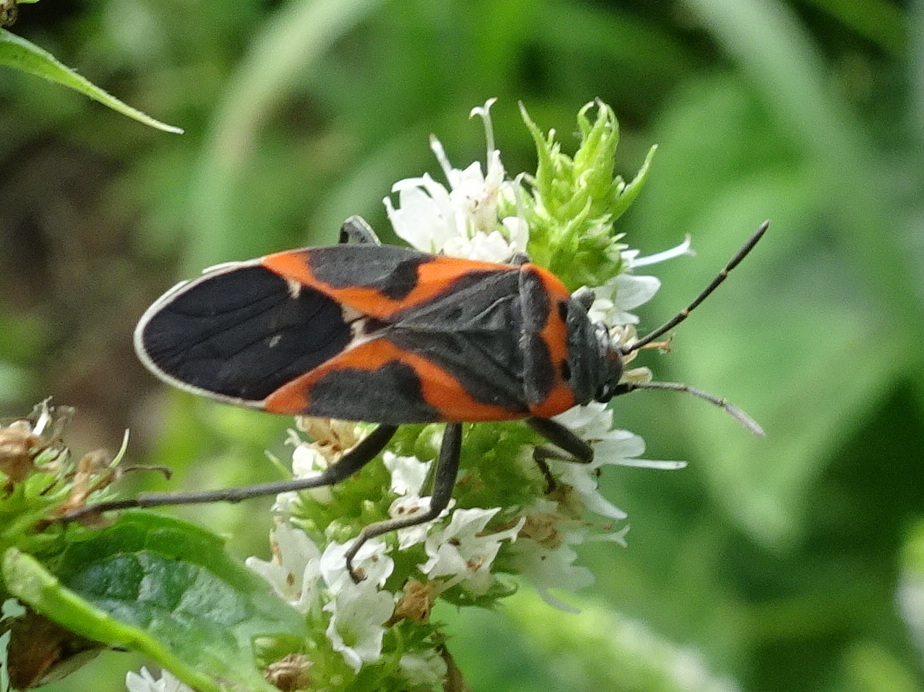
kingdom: Animalia
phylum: Arthropoda
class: Insecta
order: Hemiptera
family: Lygaeidae
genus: Lygaeus
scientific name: Lygaeus kalmii
